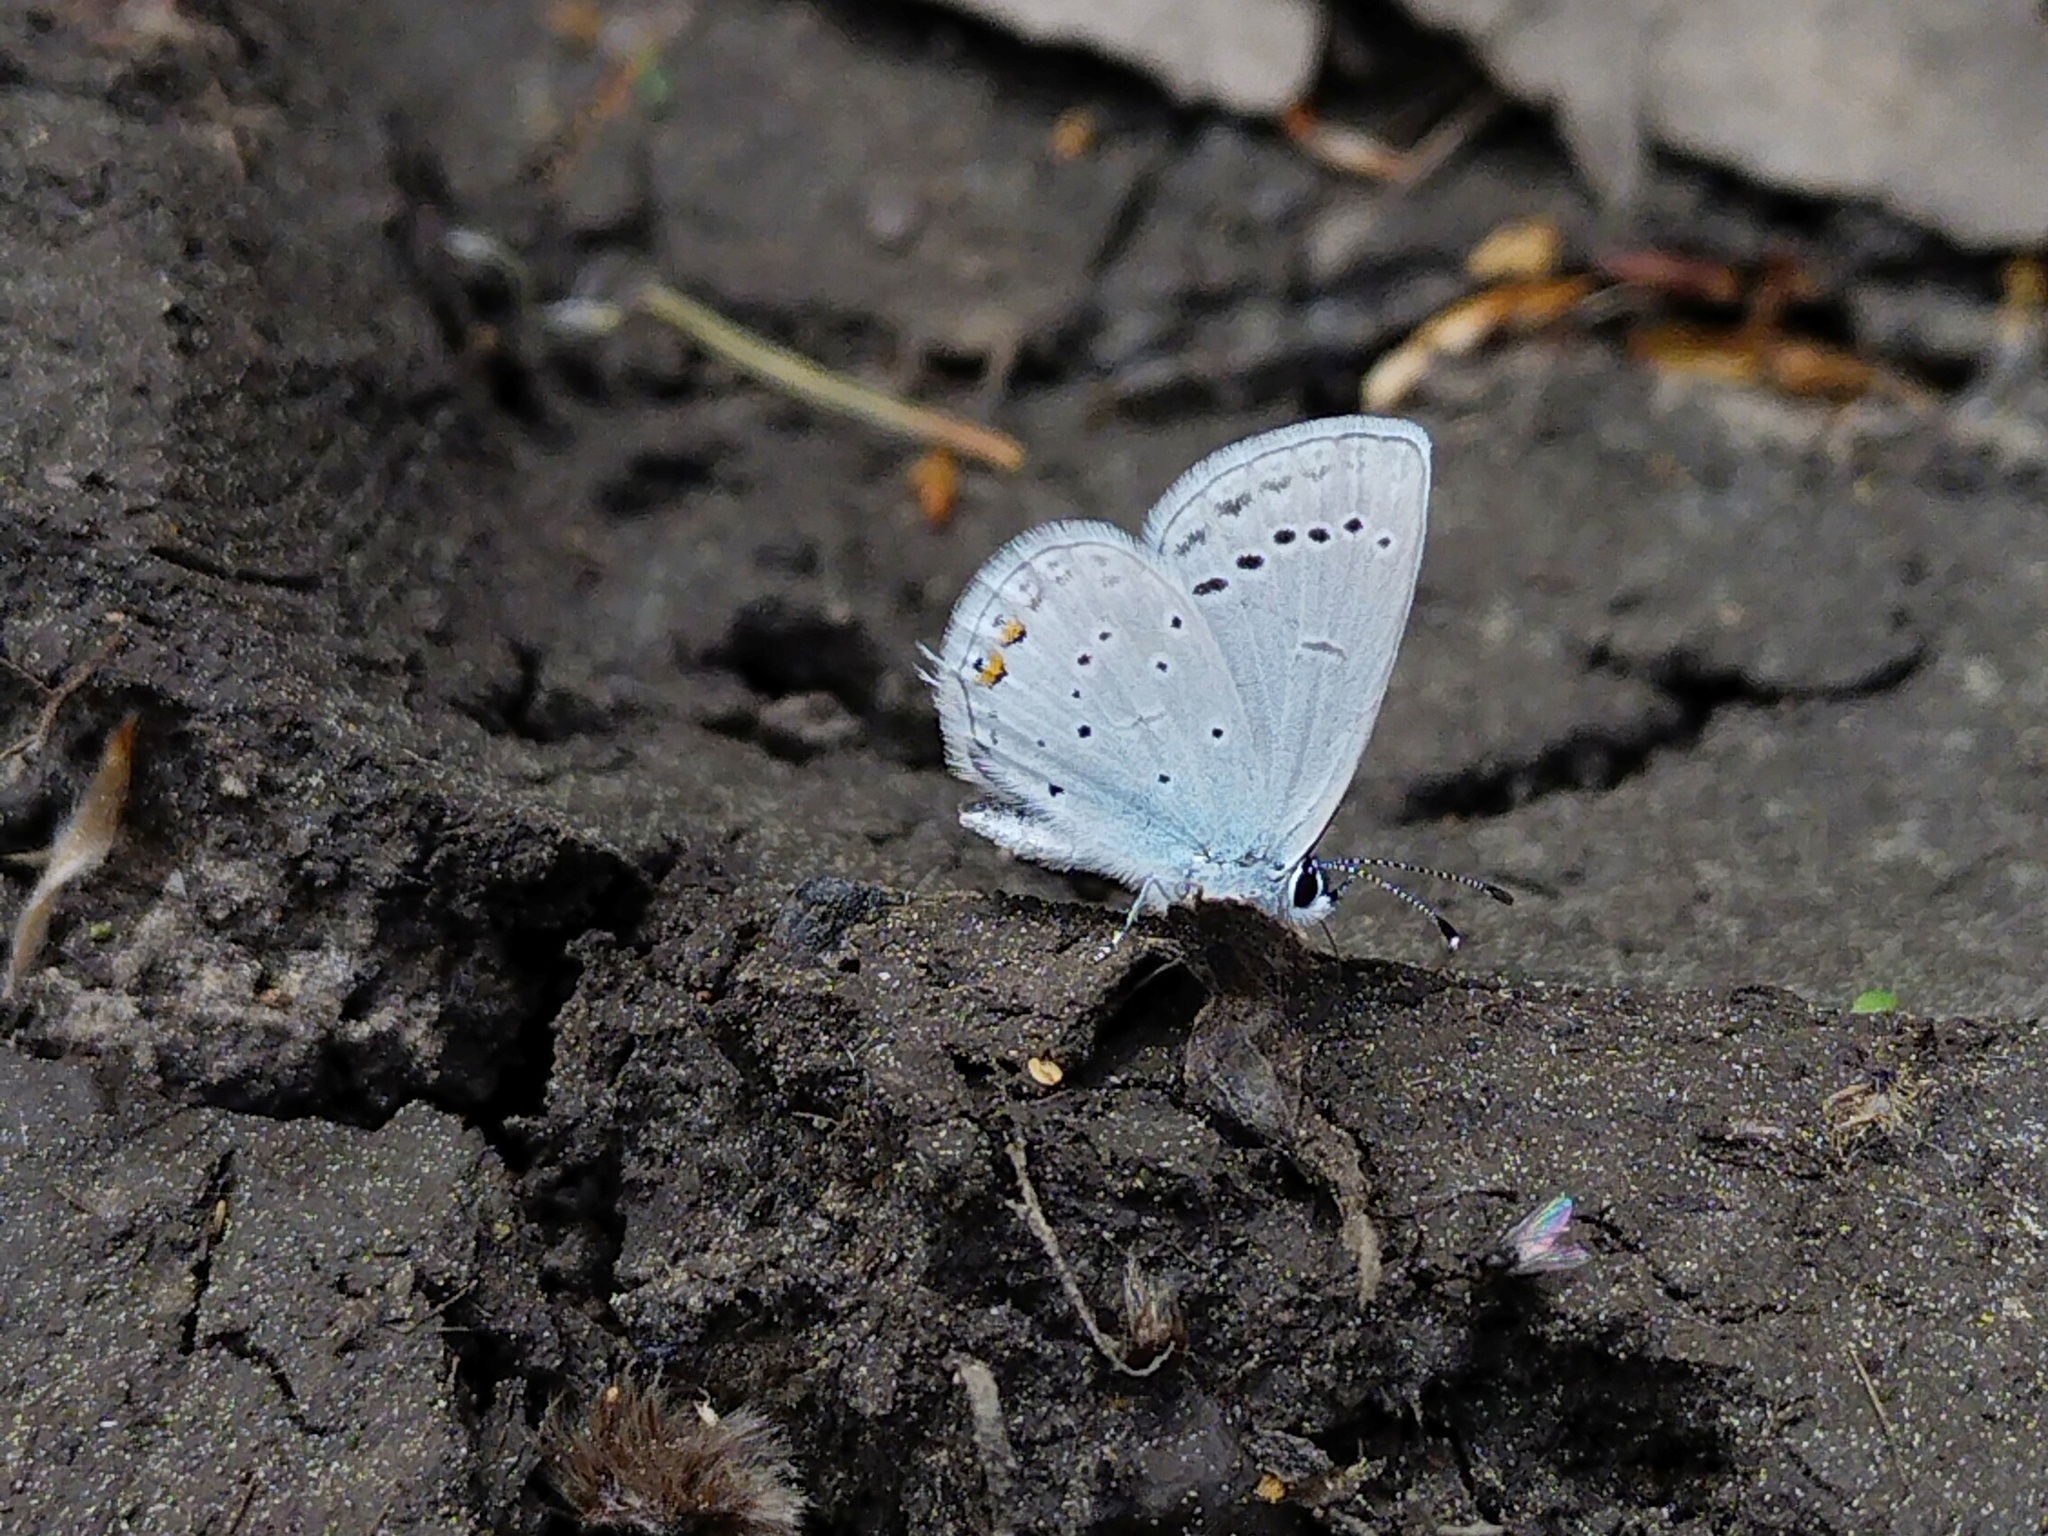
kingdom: Animalia
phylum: Arthropoda
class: Insecta
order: Lepidoptera
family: Lycaenidae
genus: Elkalyce
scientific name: Elkalyce argiades
